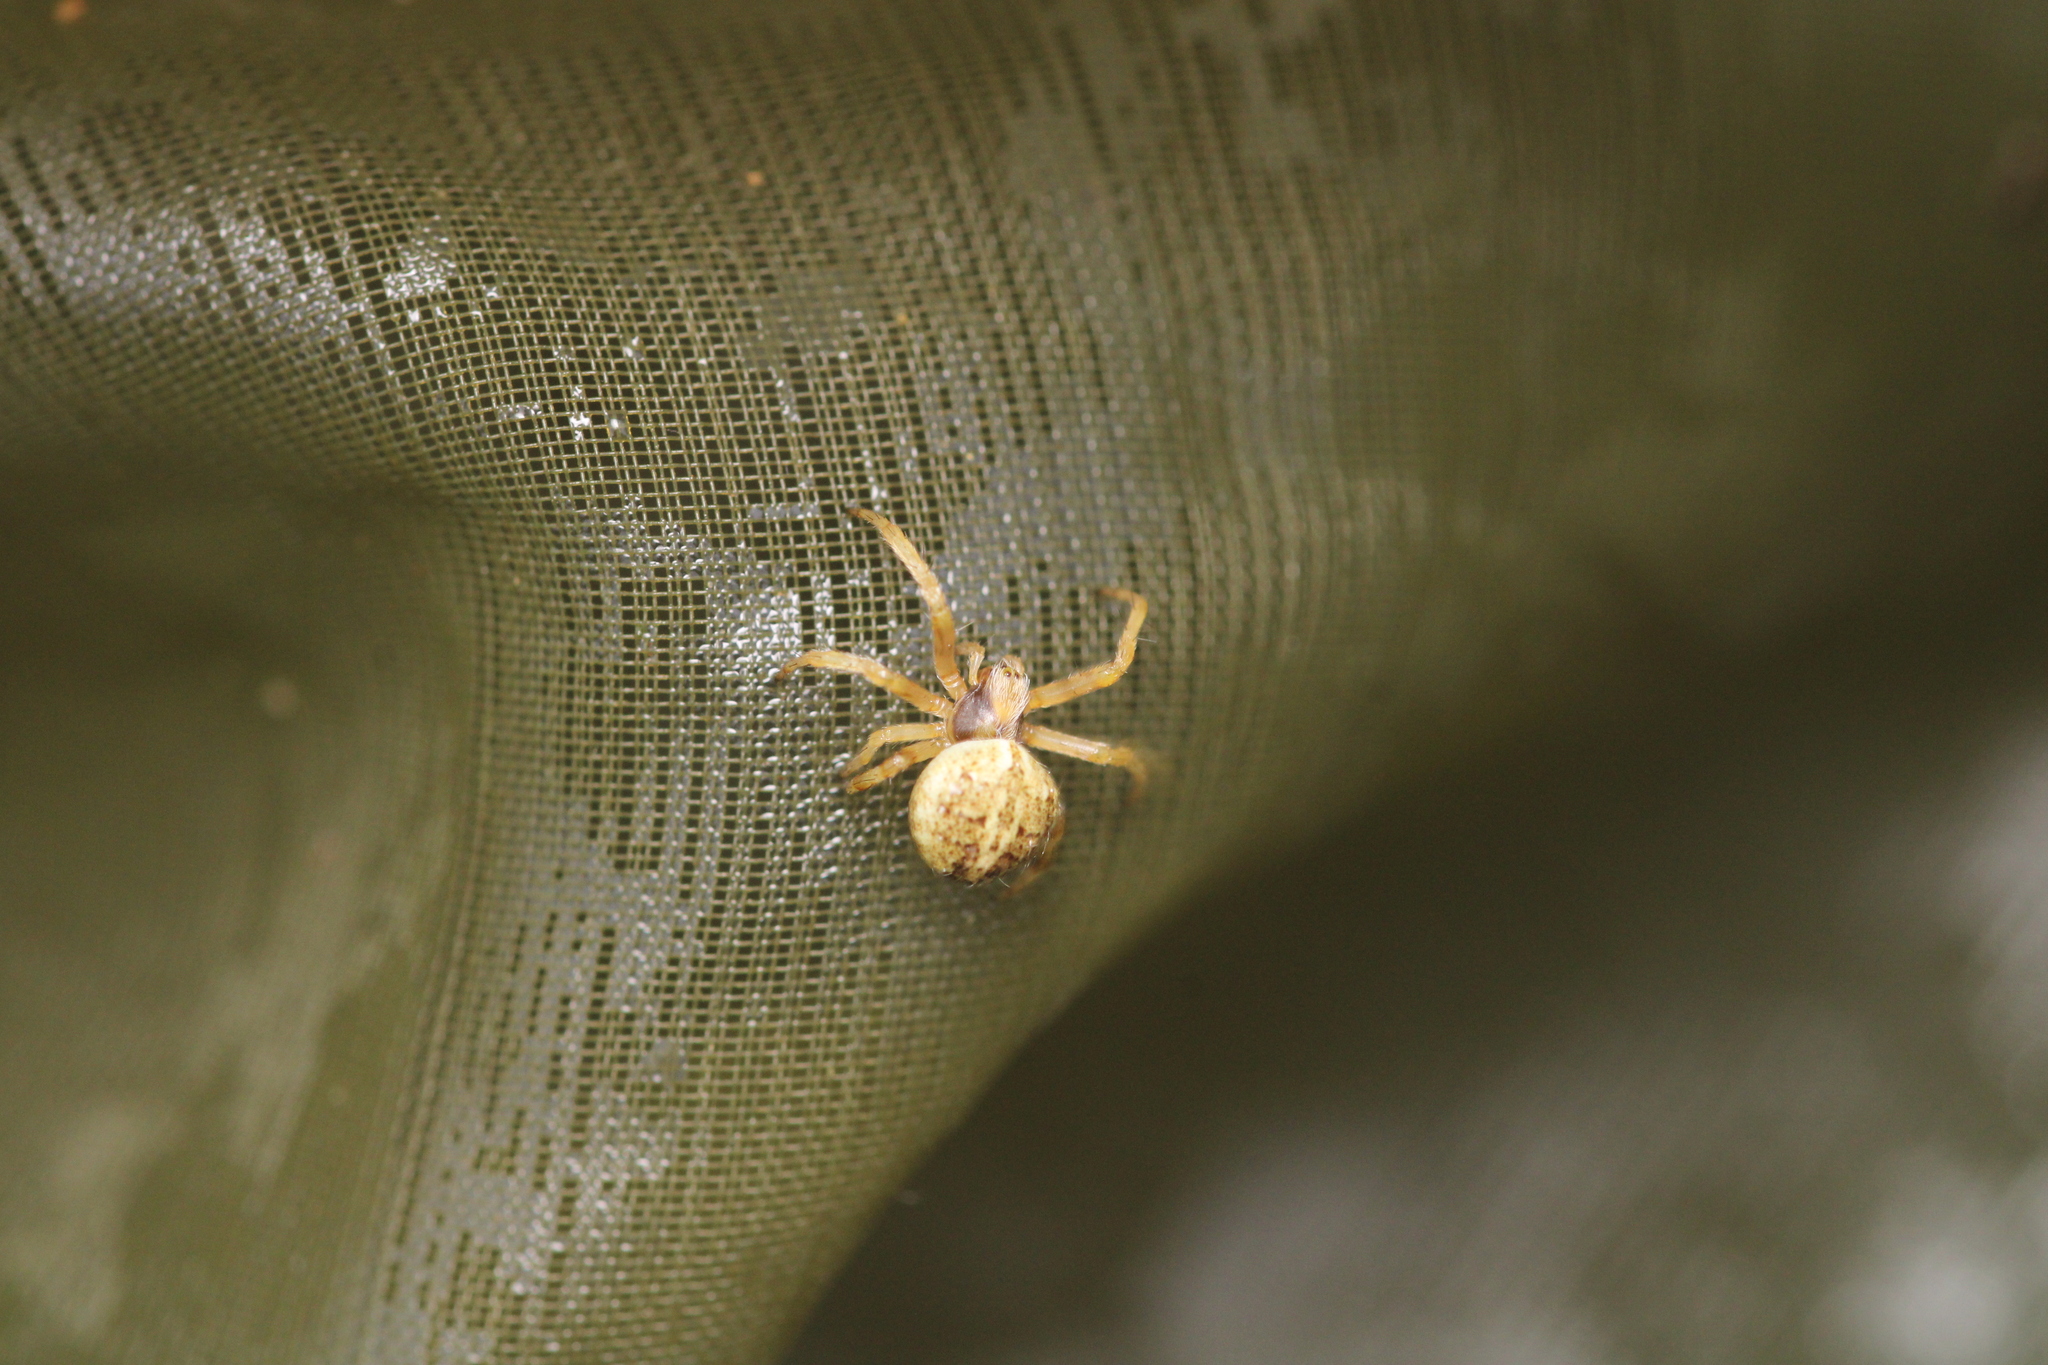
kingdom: Animalia
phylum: Arthropoda
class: Arachnida
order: Araneae
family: Araneidae
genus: Agalenatea
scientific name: Agalenatea redii
